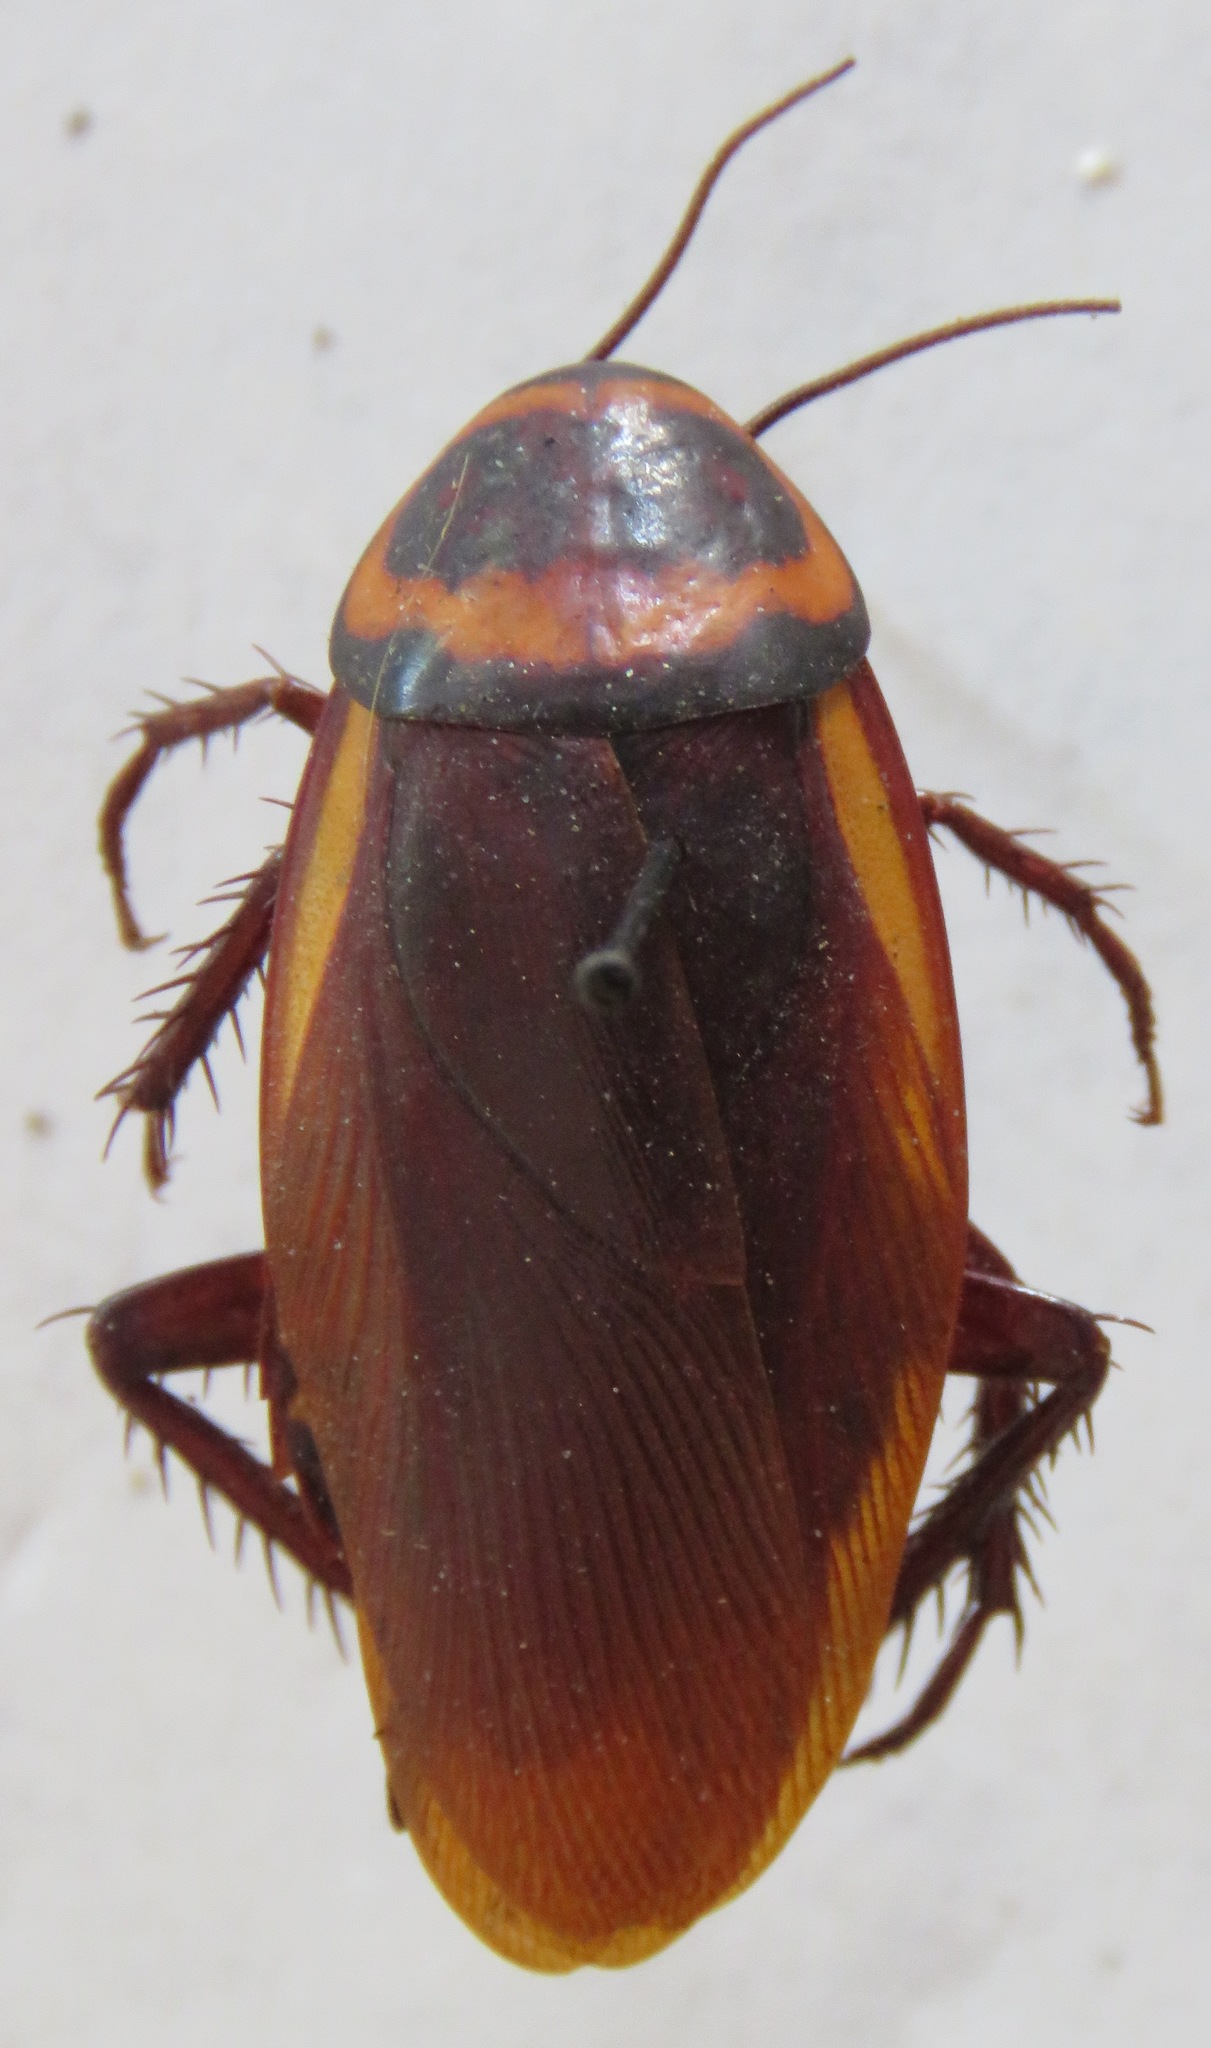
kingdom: Animalia
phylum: Arthropoda
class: Insecta
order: Blattodea
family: Blattidae
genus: Periplaneta
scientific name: Periplaneta australasiae
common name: Australian cockroach
